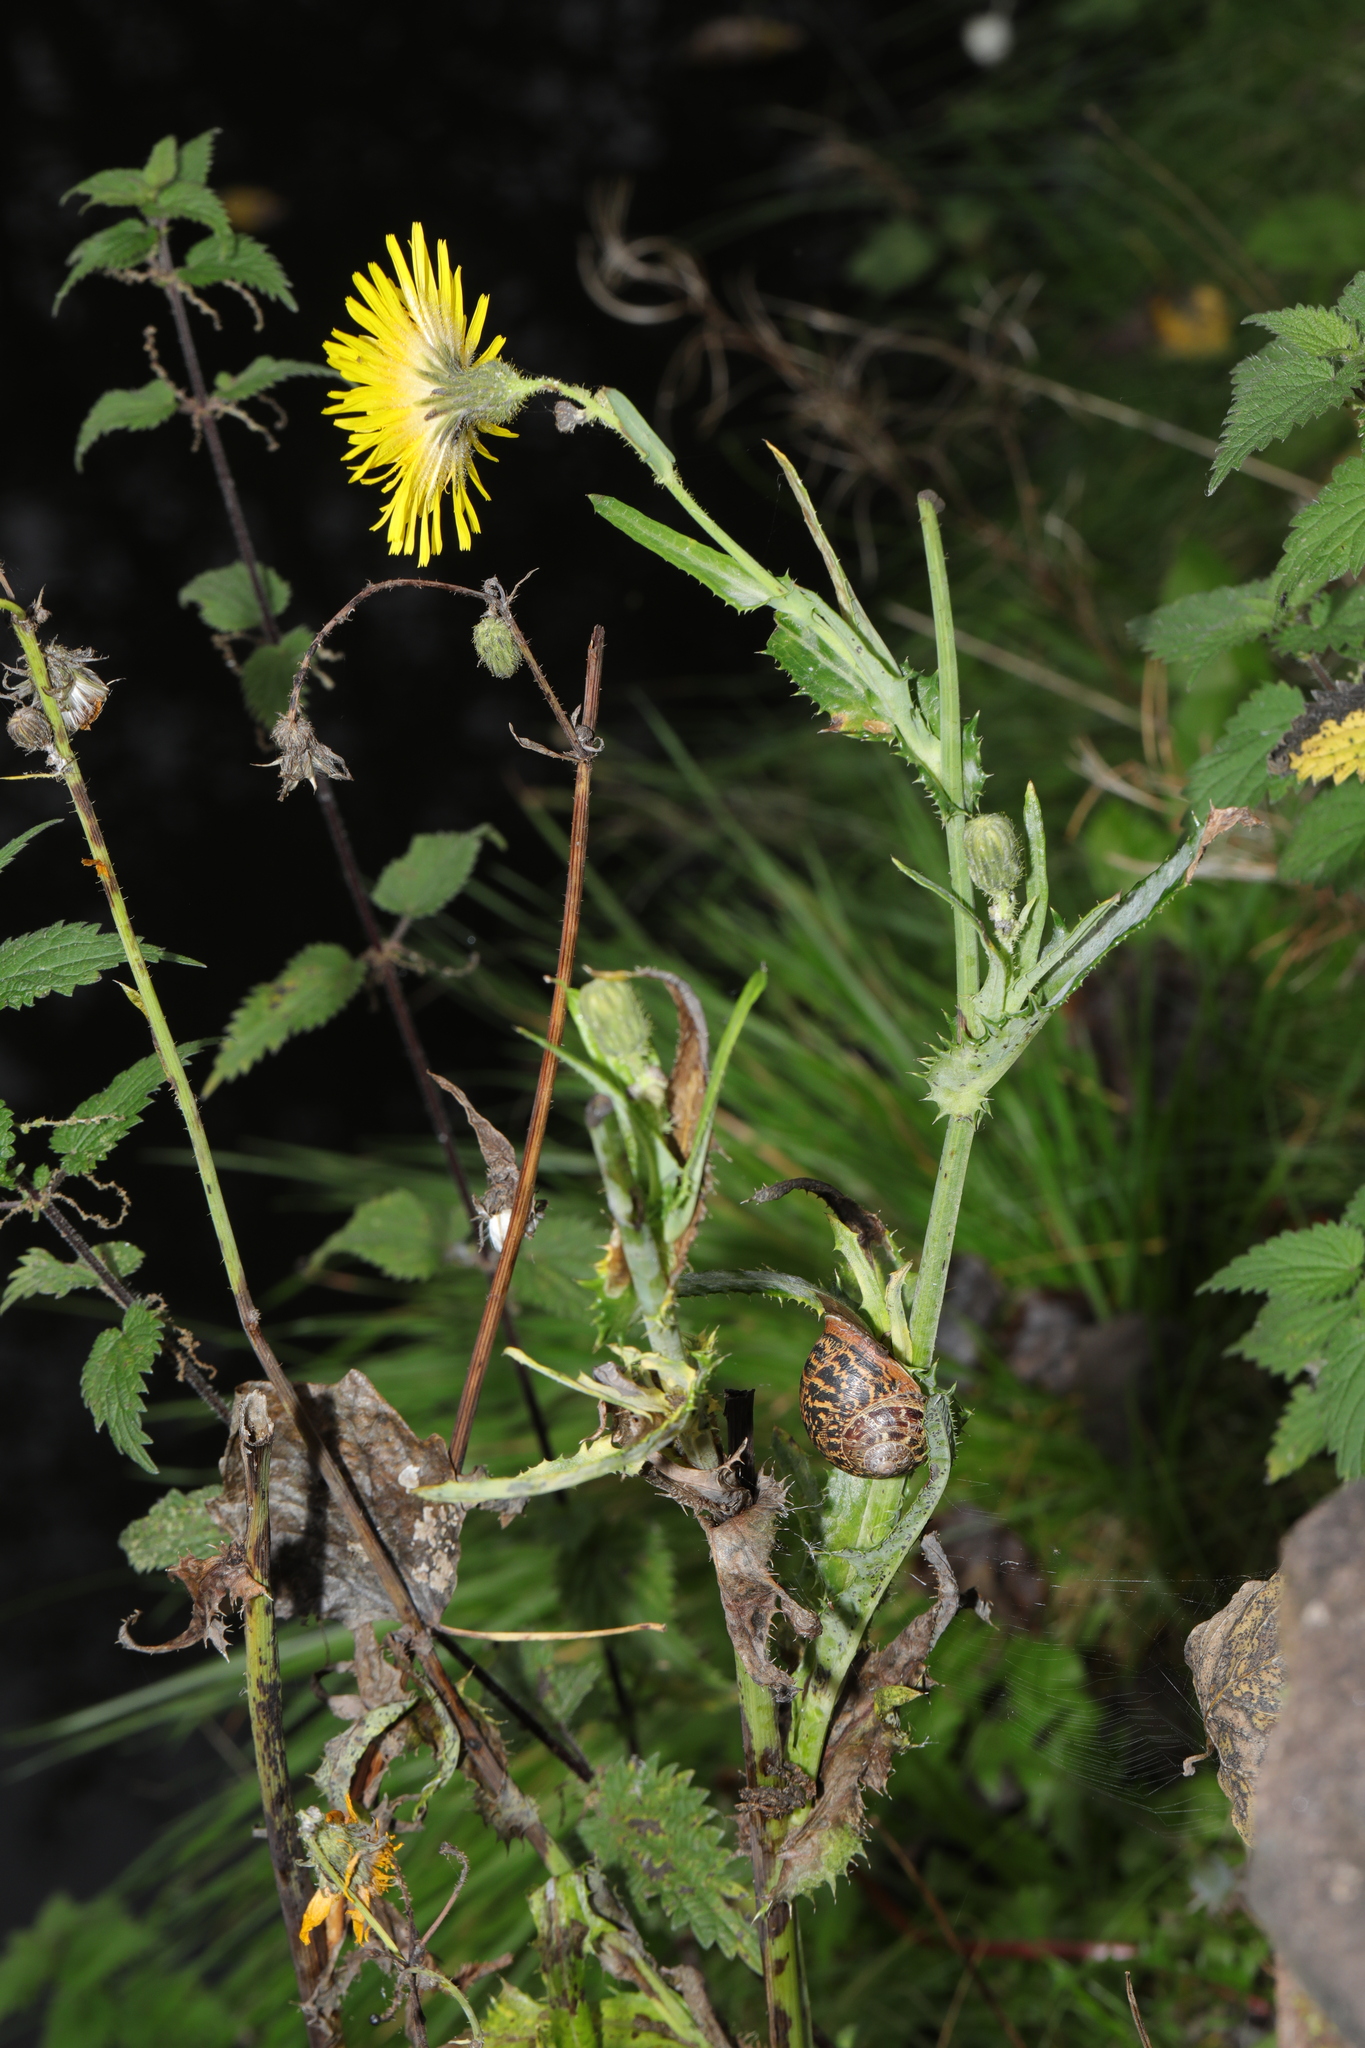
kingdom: Plantae
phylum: Tracheophyta
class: Magnoliopsida
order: Asterales
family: Asteraceae
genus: Sonchus
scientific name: Sonchus arvensis
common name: Perennial sow-thistle
